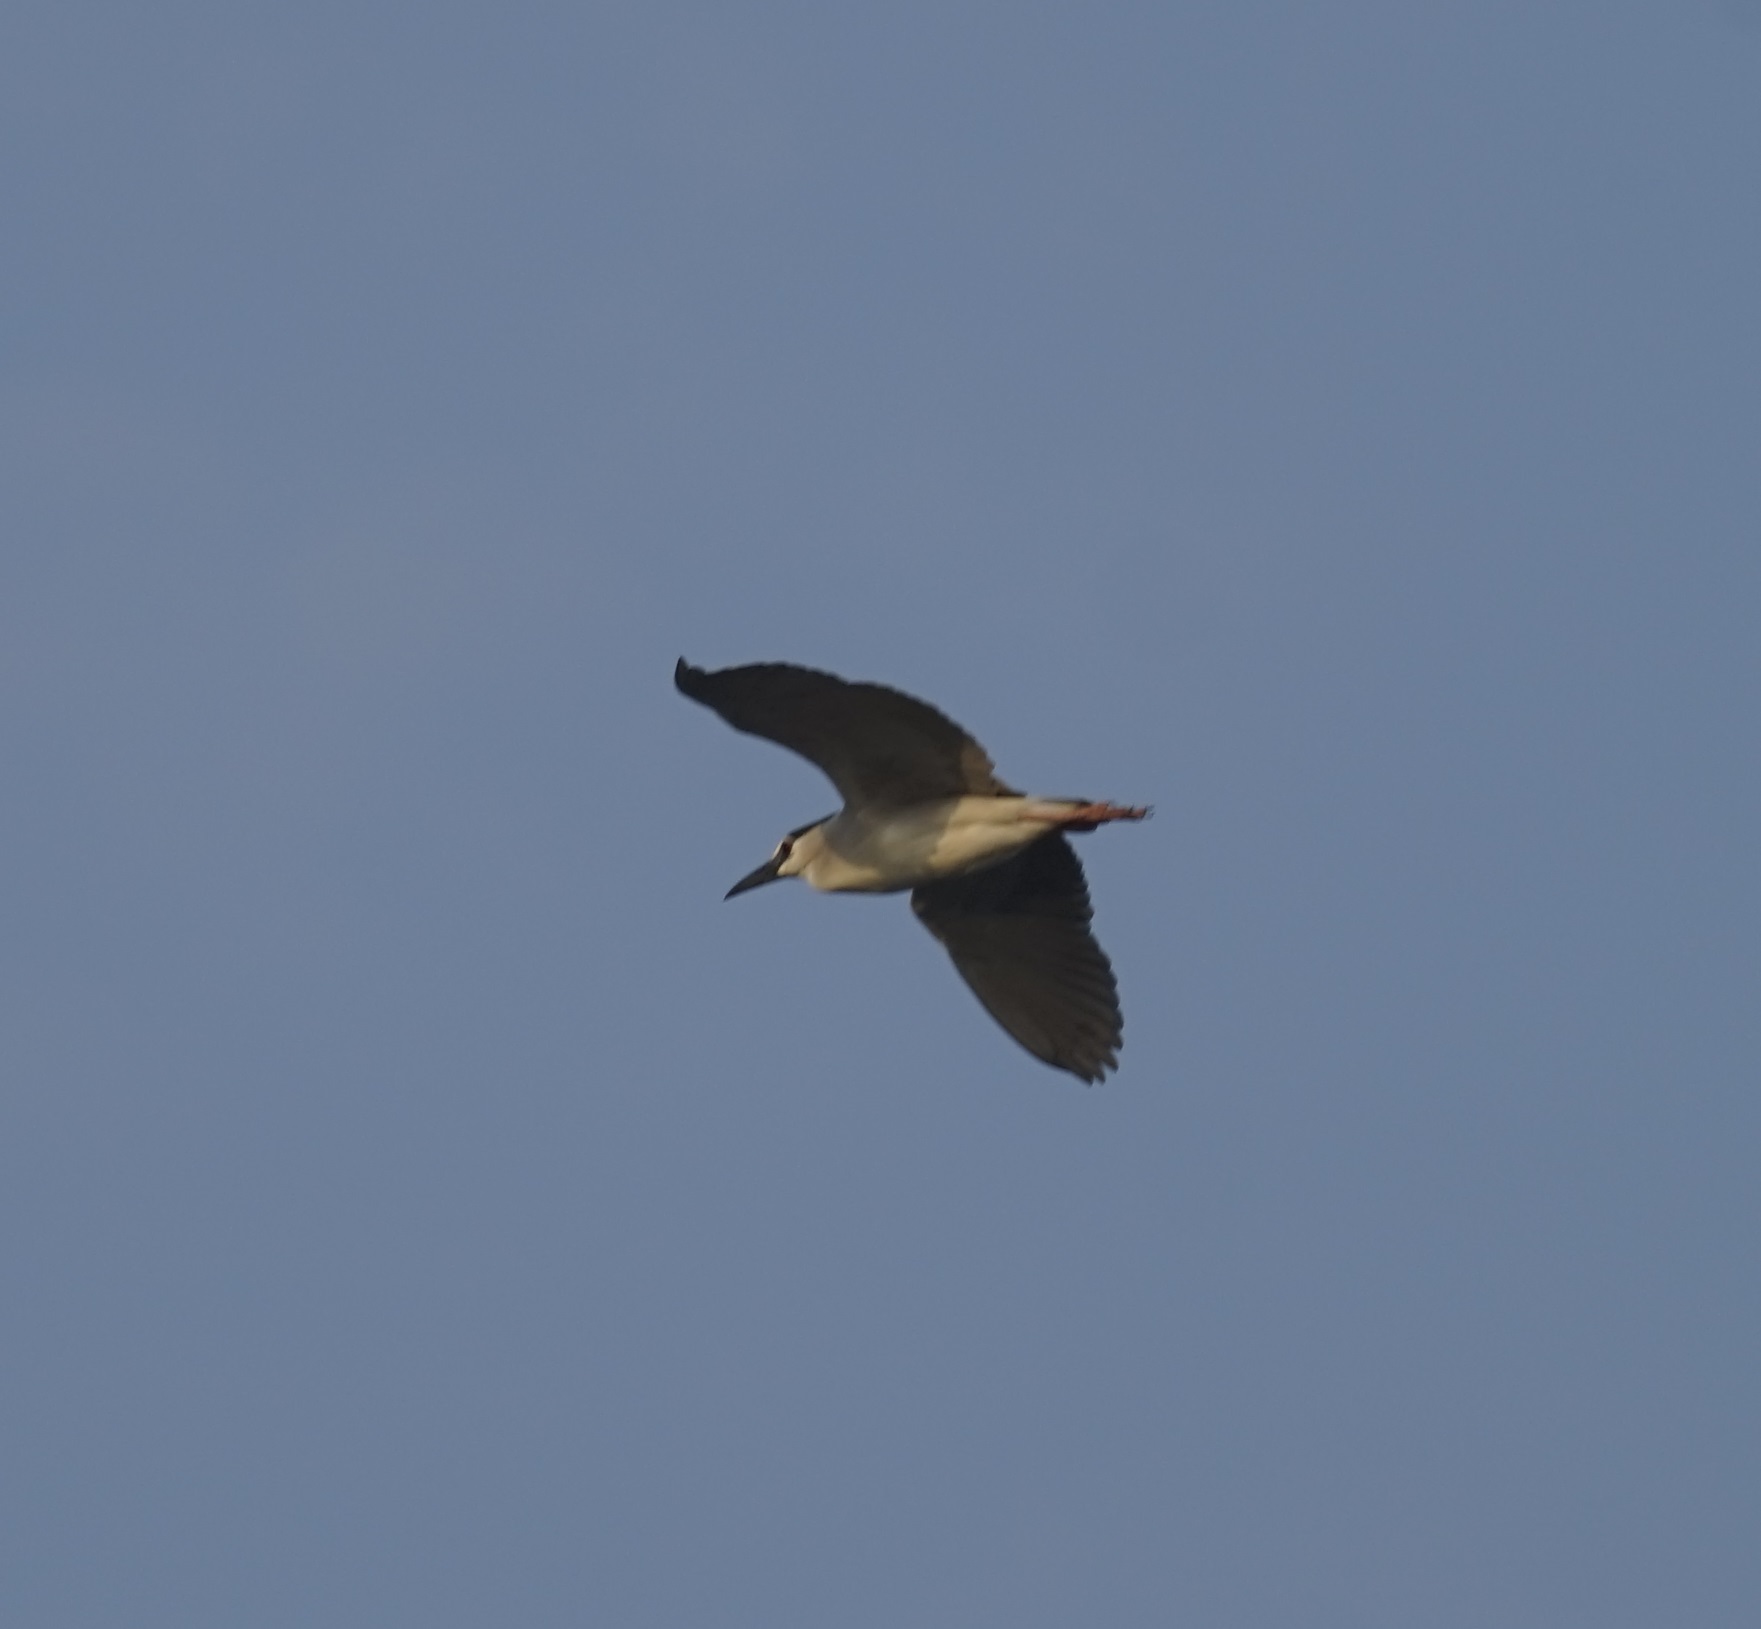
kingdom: Animalia
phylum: Chordata
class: Aves
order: Pelecaniformes
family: Ardeidae
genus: Nycticorax
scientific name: Nycticorax nycticorax
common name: Black-crowned night heron
